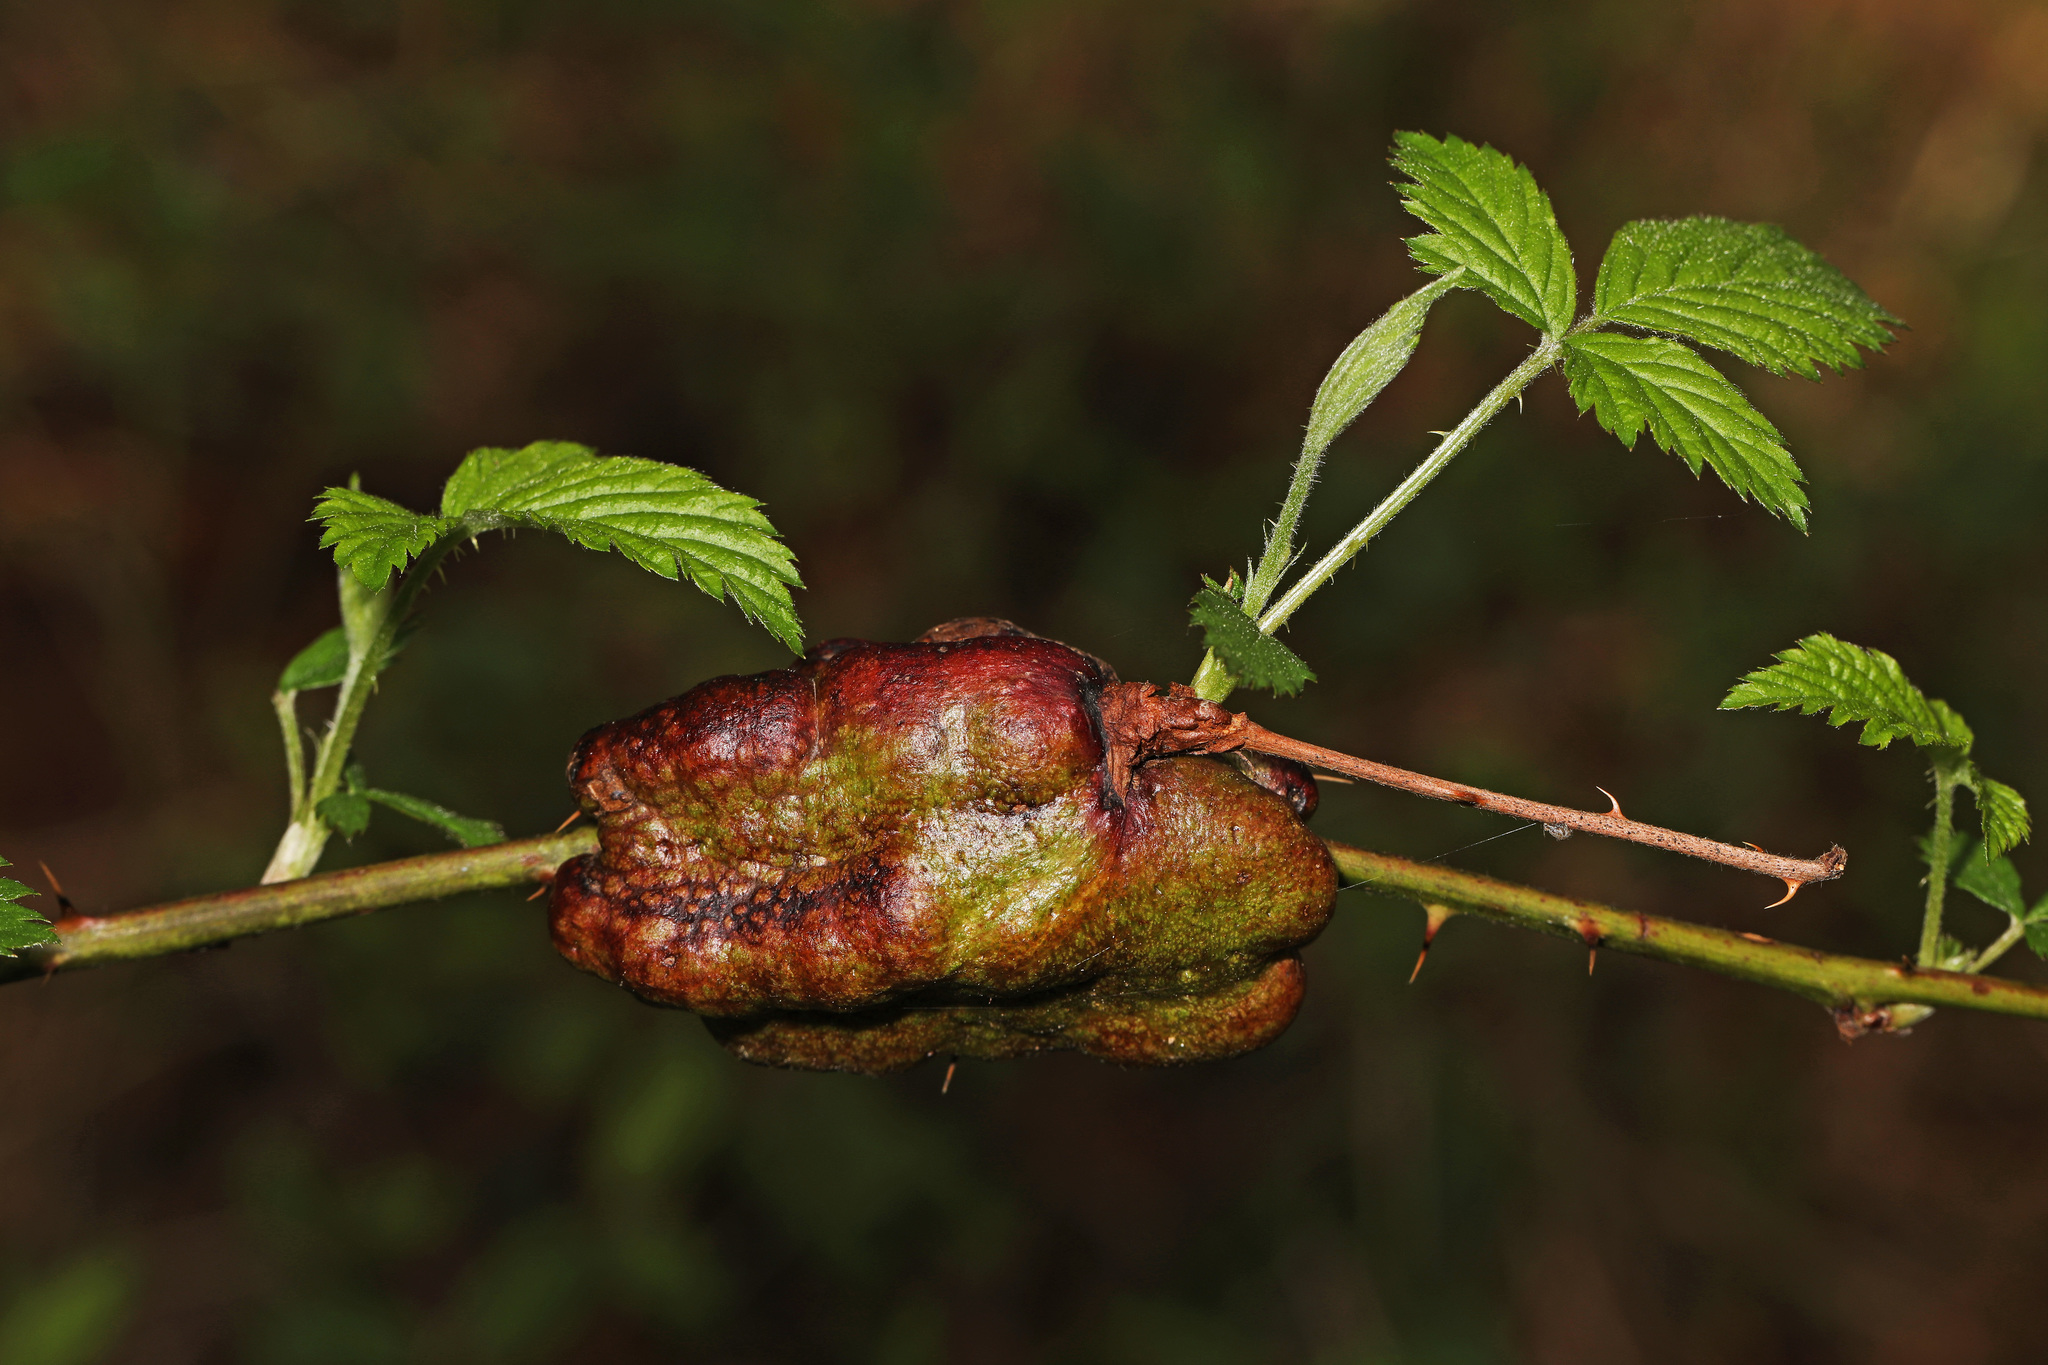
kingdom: Animalia
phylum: Arthropoda
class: Insecta
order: Hymenoptera
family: Cynipidae
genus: Diastrophus
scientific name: Diastrophus
